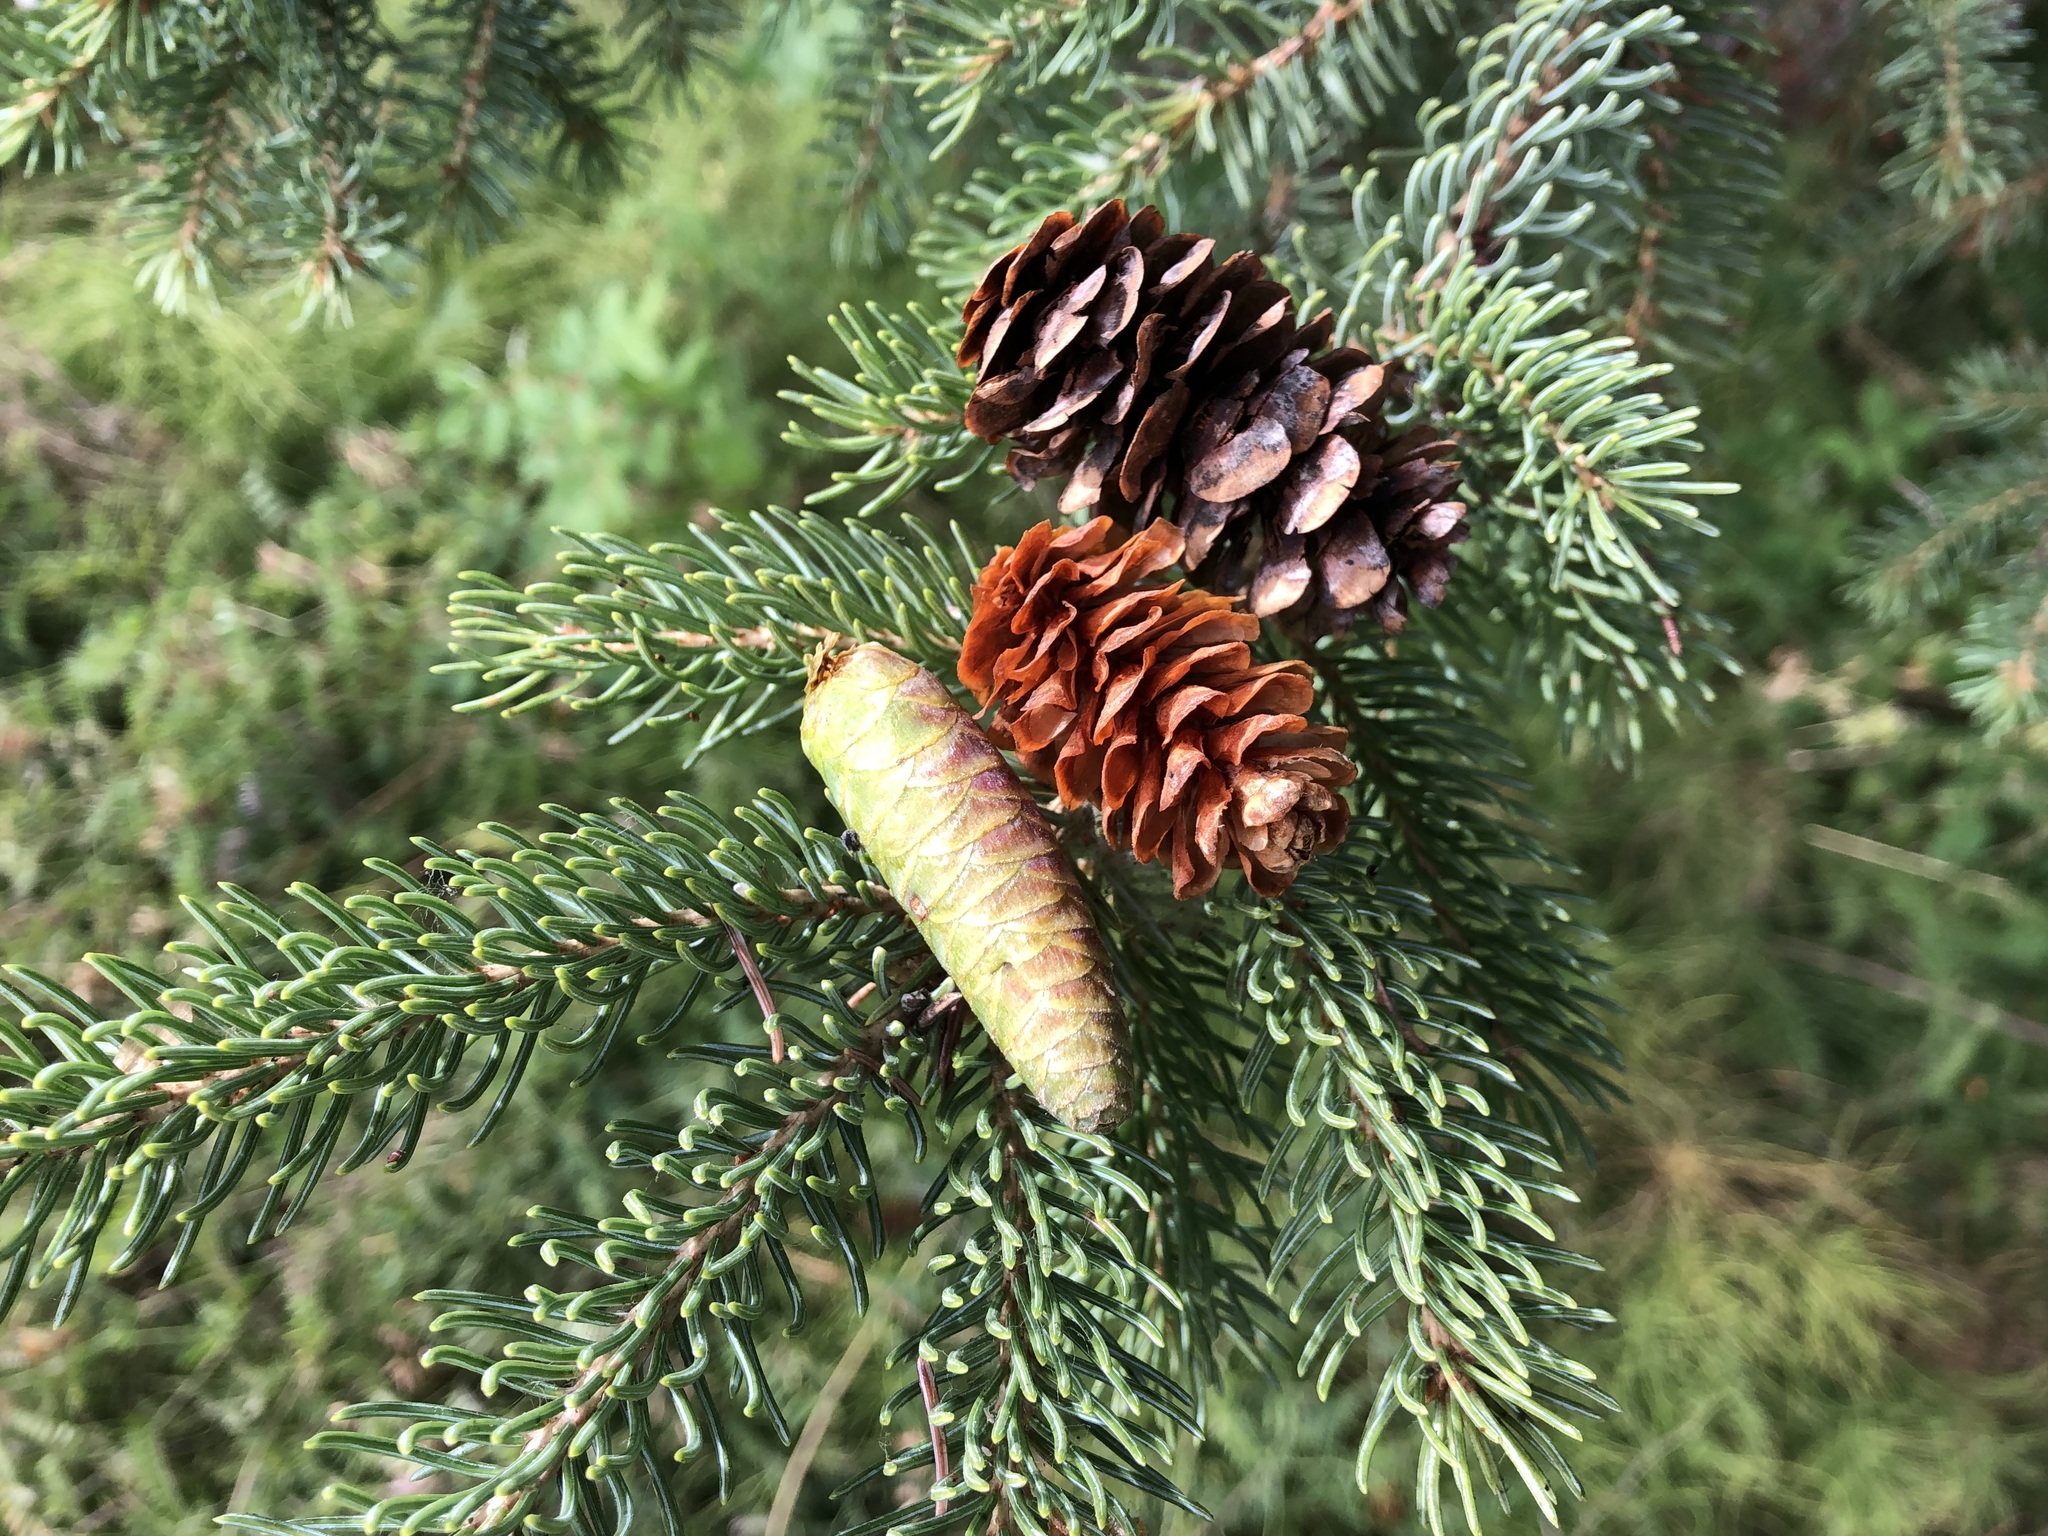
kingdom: Plantae
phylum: Tracheophyta
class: Pinopsida
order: Pinales
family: Pinaceae
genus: Picea
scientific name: Picea glauca
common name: White spruce
